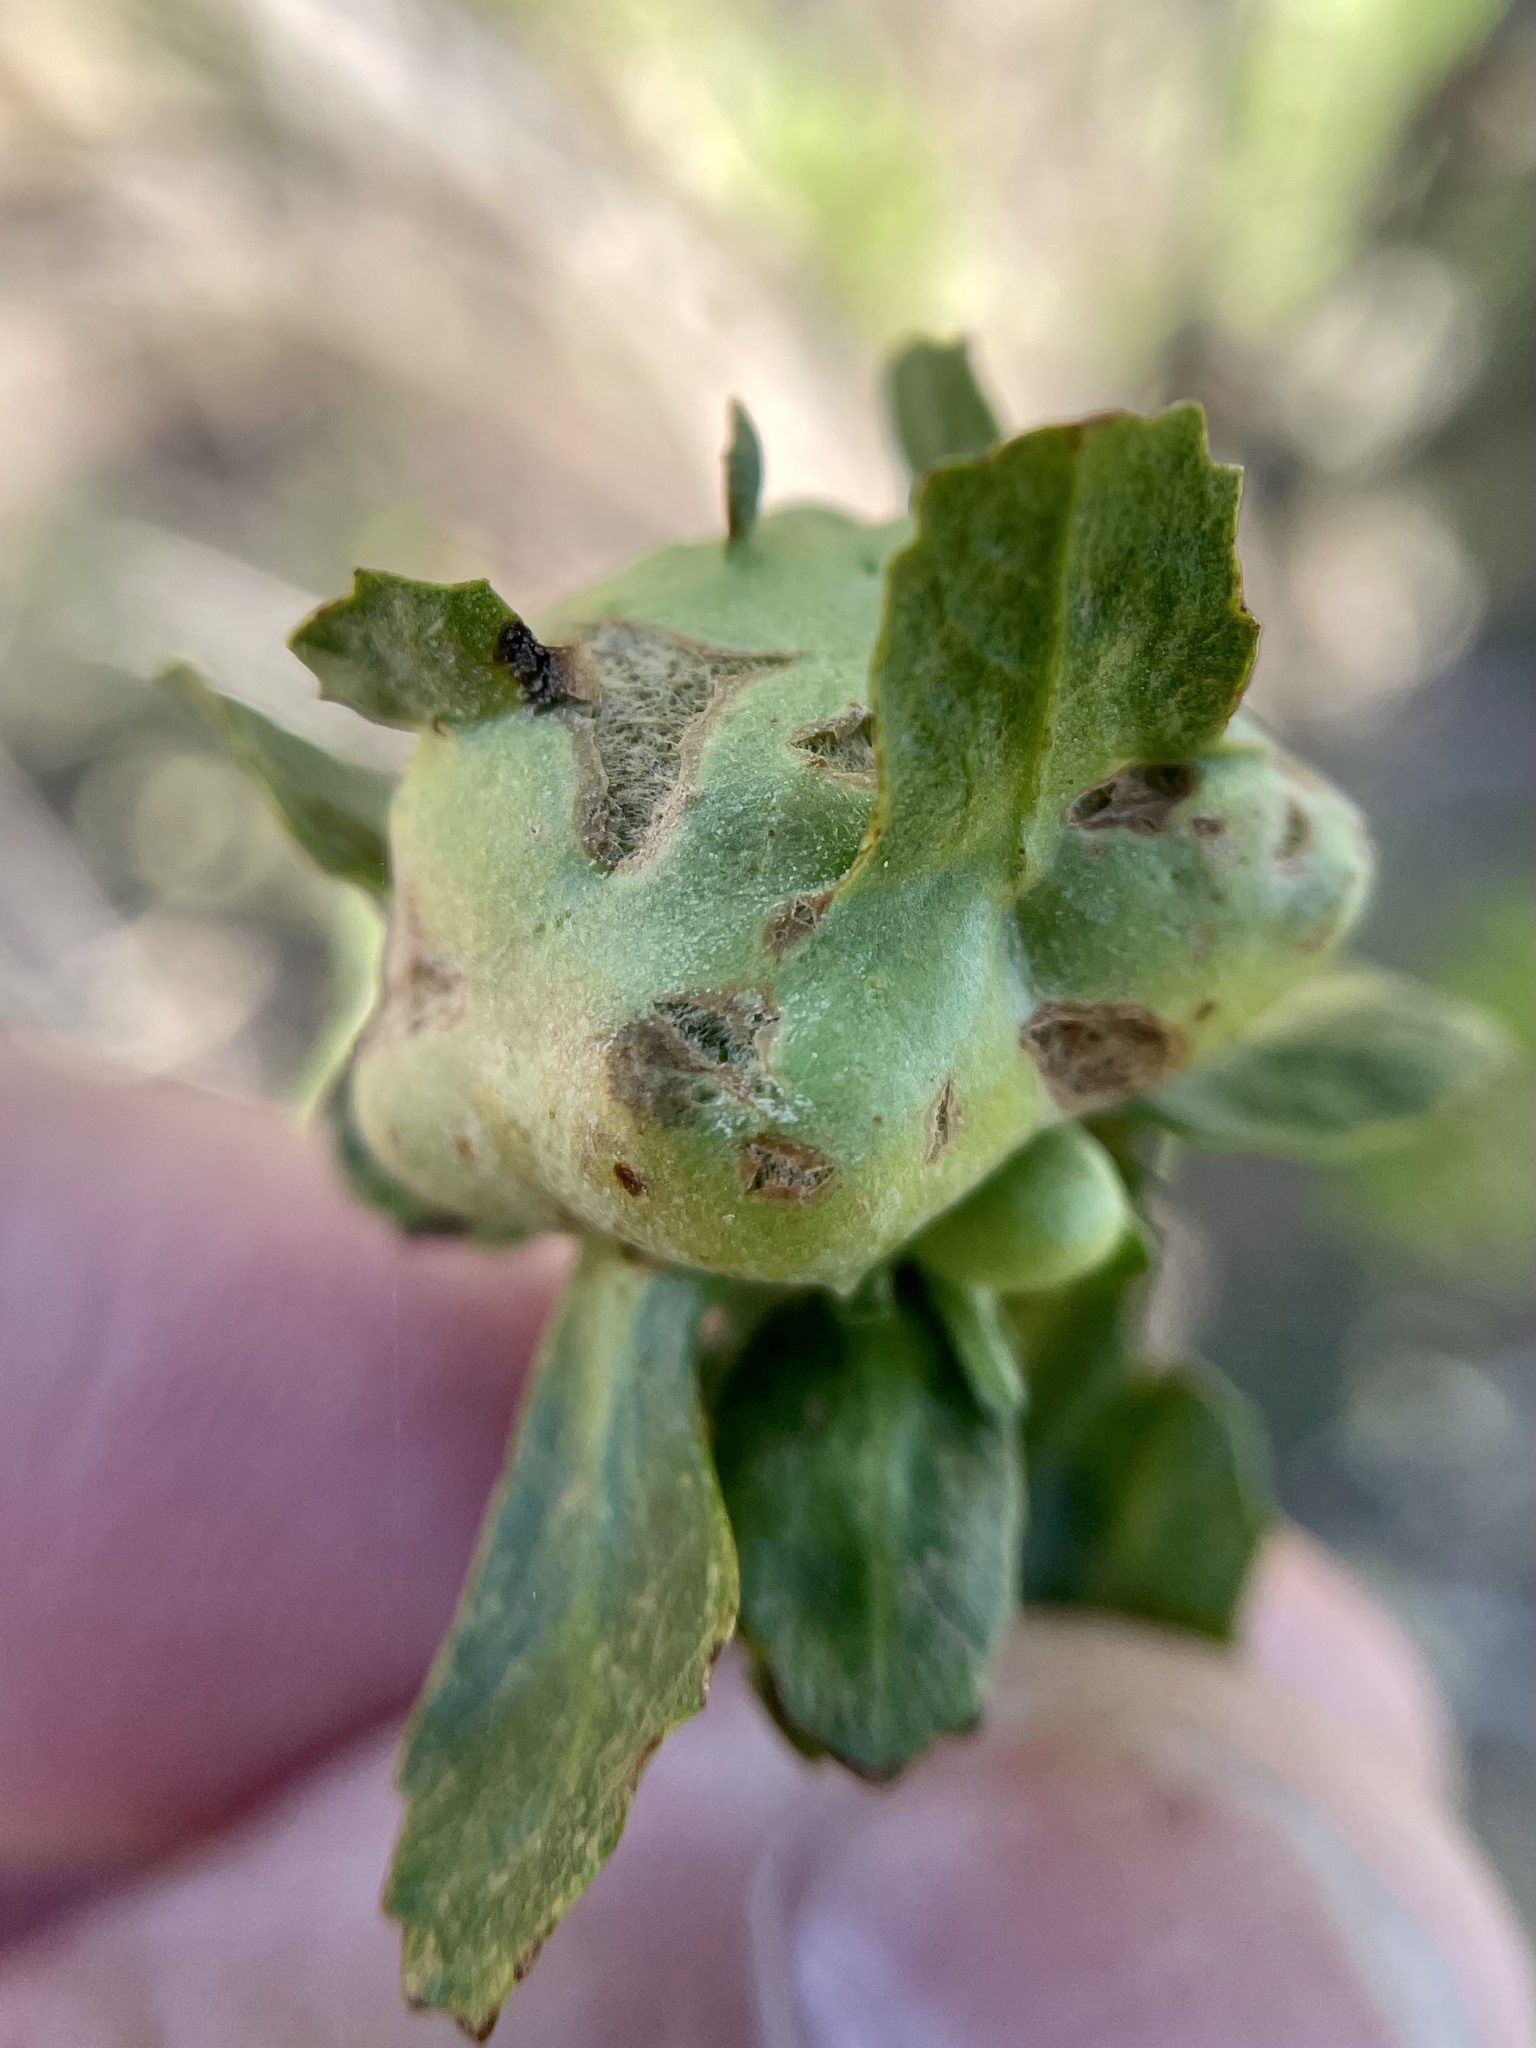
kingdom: Animalia
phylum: Arthropoda
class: Insecta
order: Diptera
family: Cecidomyiidae
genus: Rhopalomyia
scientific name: Rhopalomyia californica
